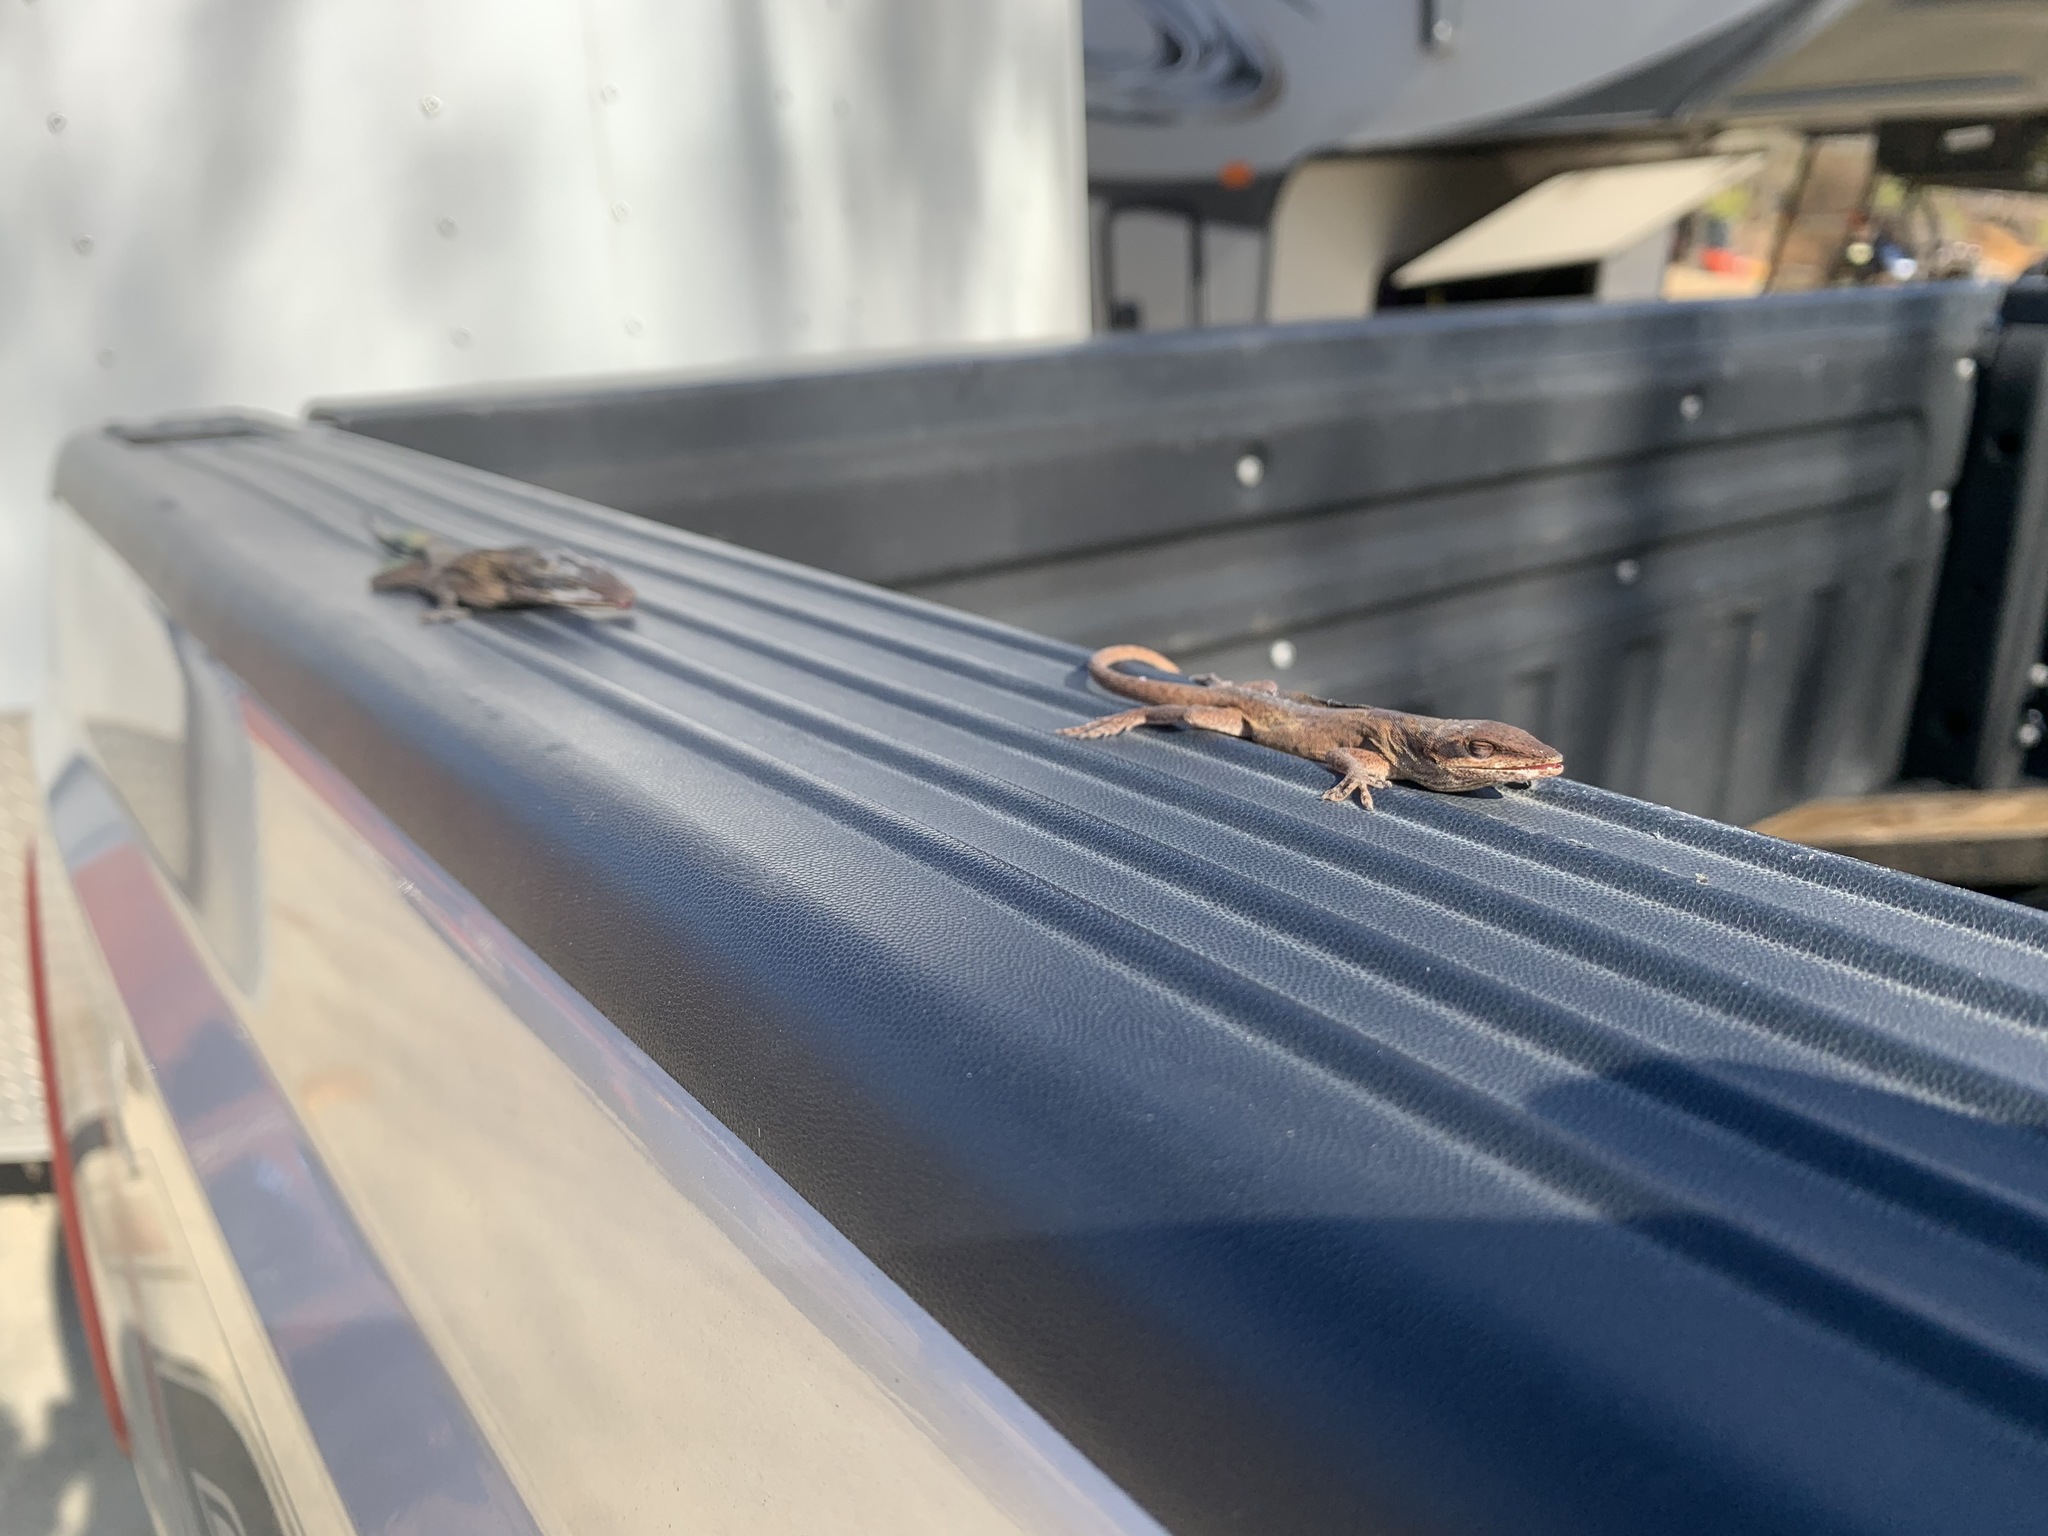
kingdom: Animalia
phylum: Chordata
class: Squamata
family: Dactyloidae
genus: Anolis
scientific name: Anolis carolinensis
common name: Green anole
